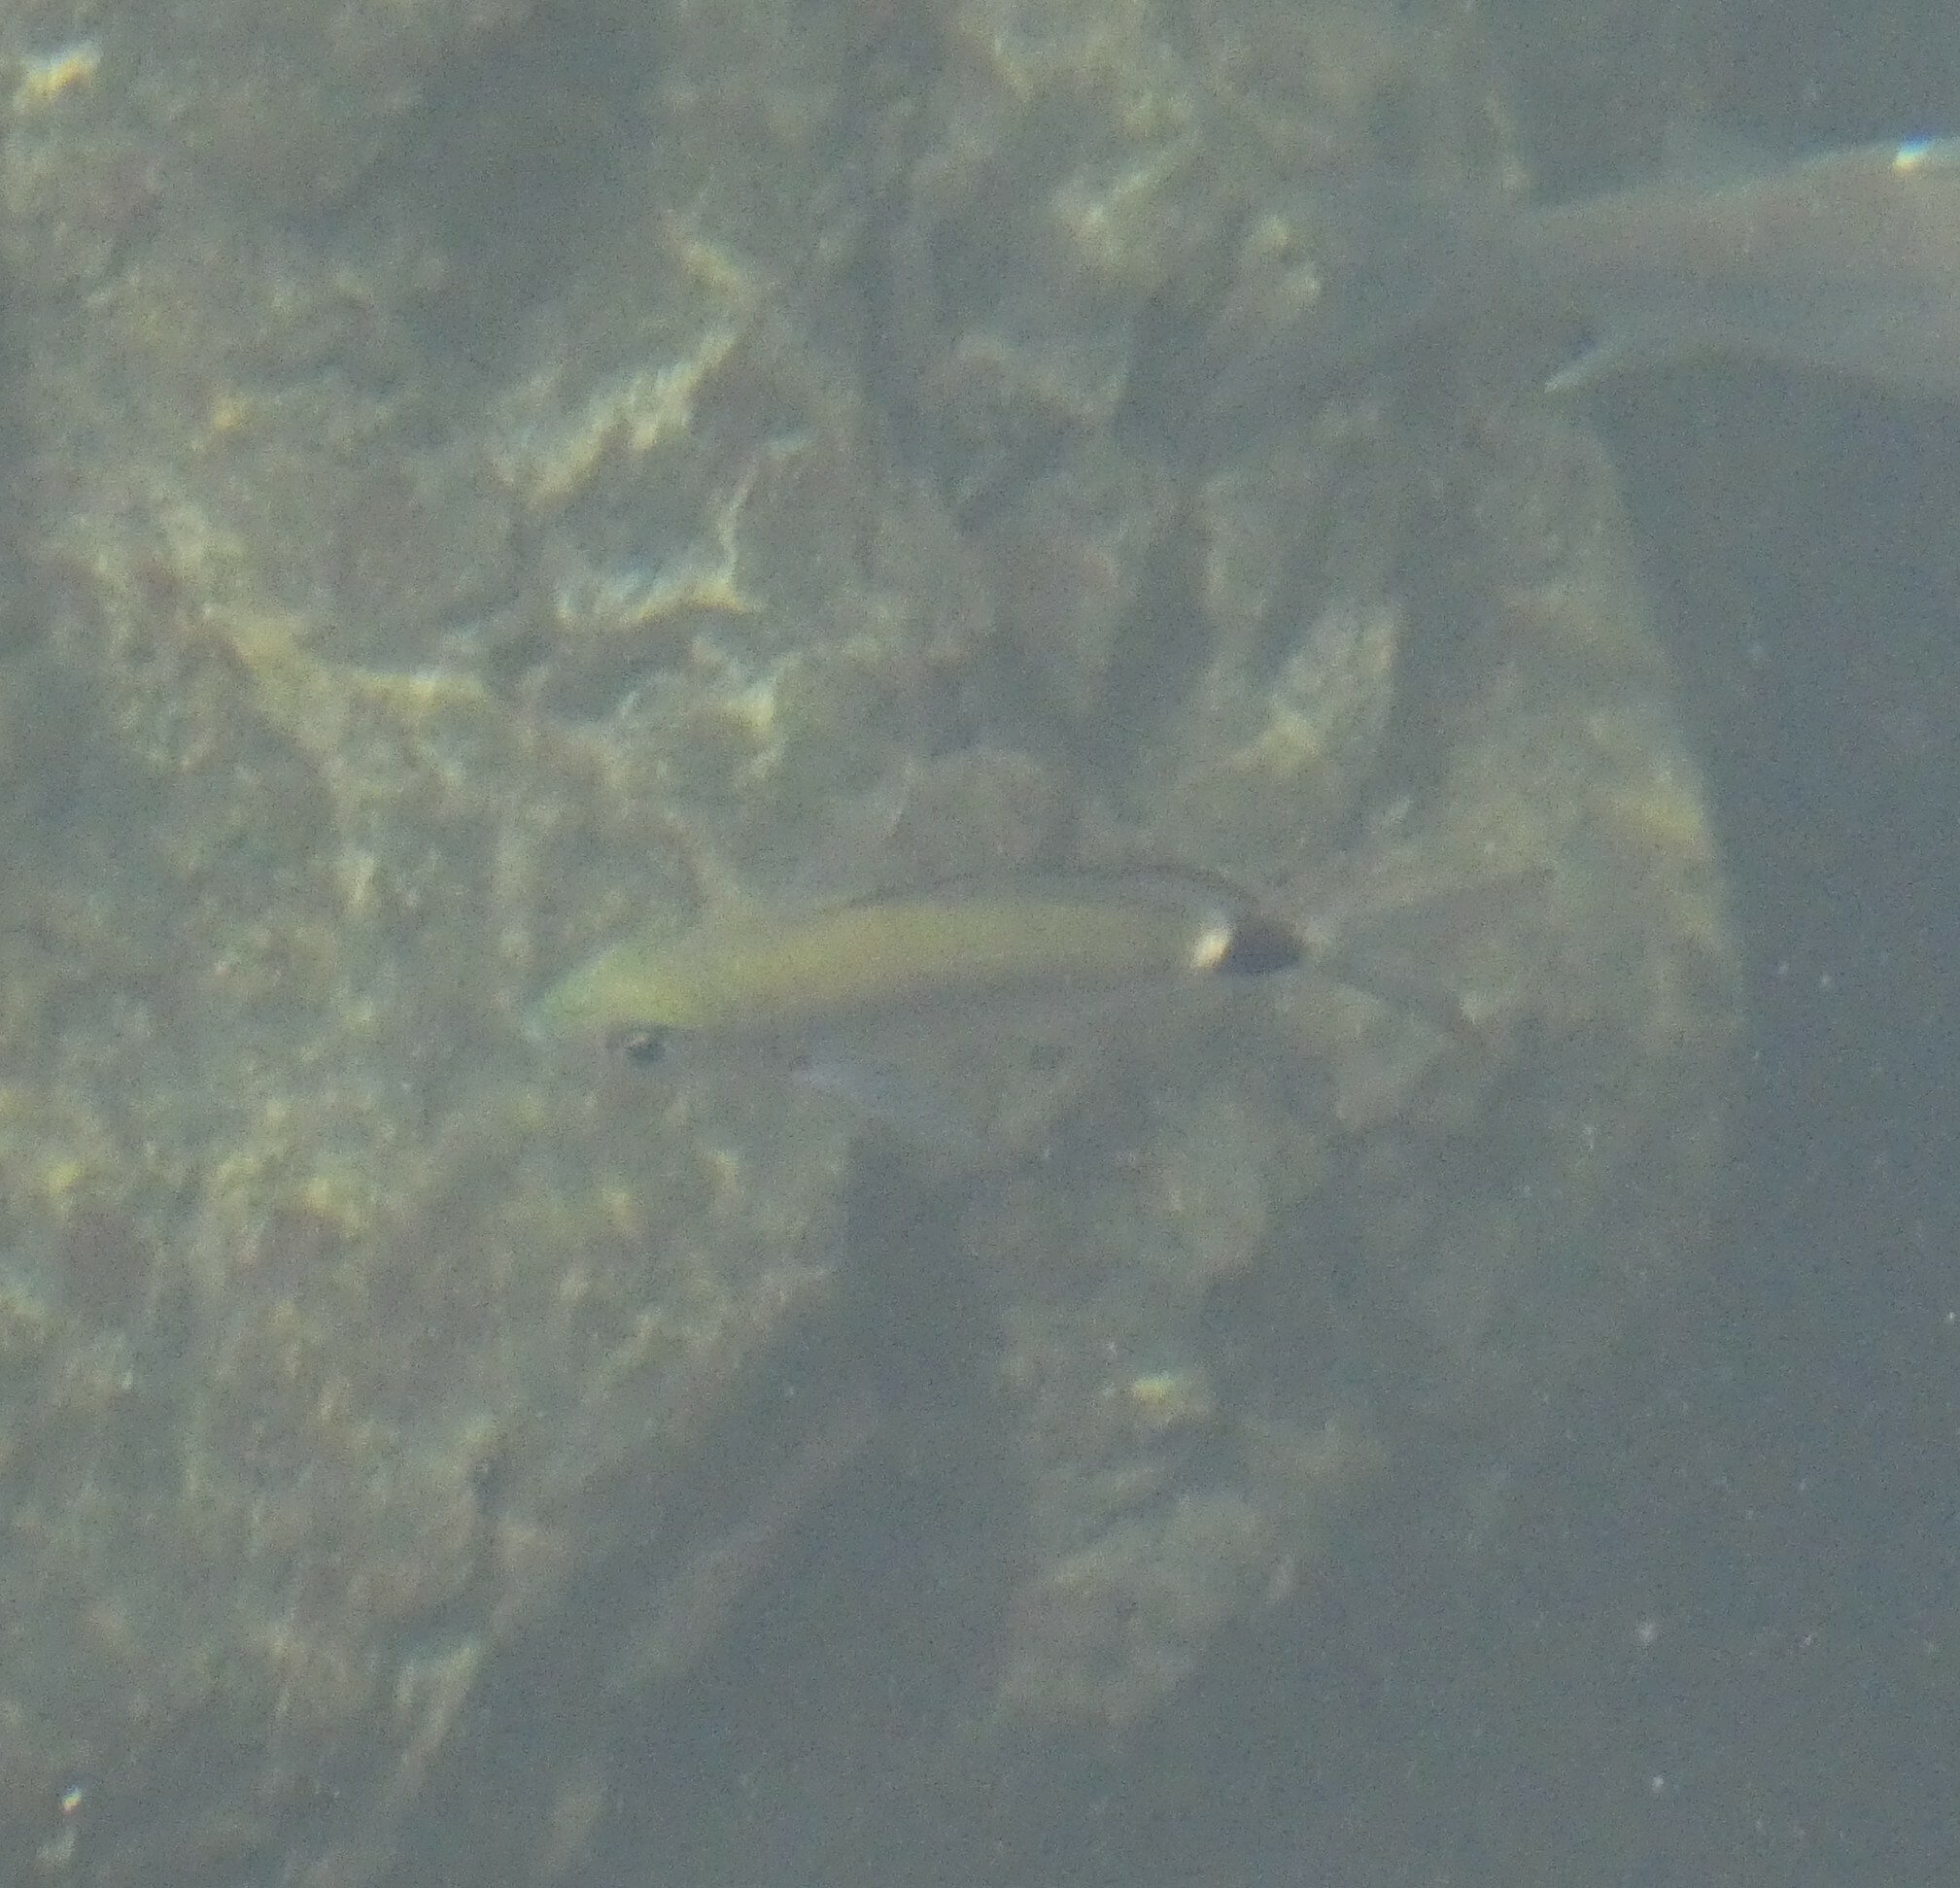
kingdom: Animalia
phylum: Chordata
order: Perciformes
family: Sparidae
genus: Oblada
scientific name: Oblada melanura
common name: Saddled seabream
